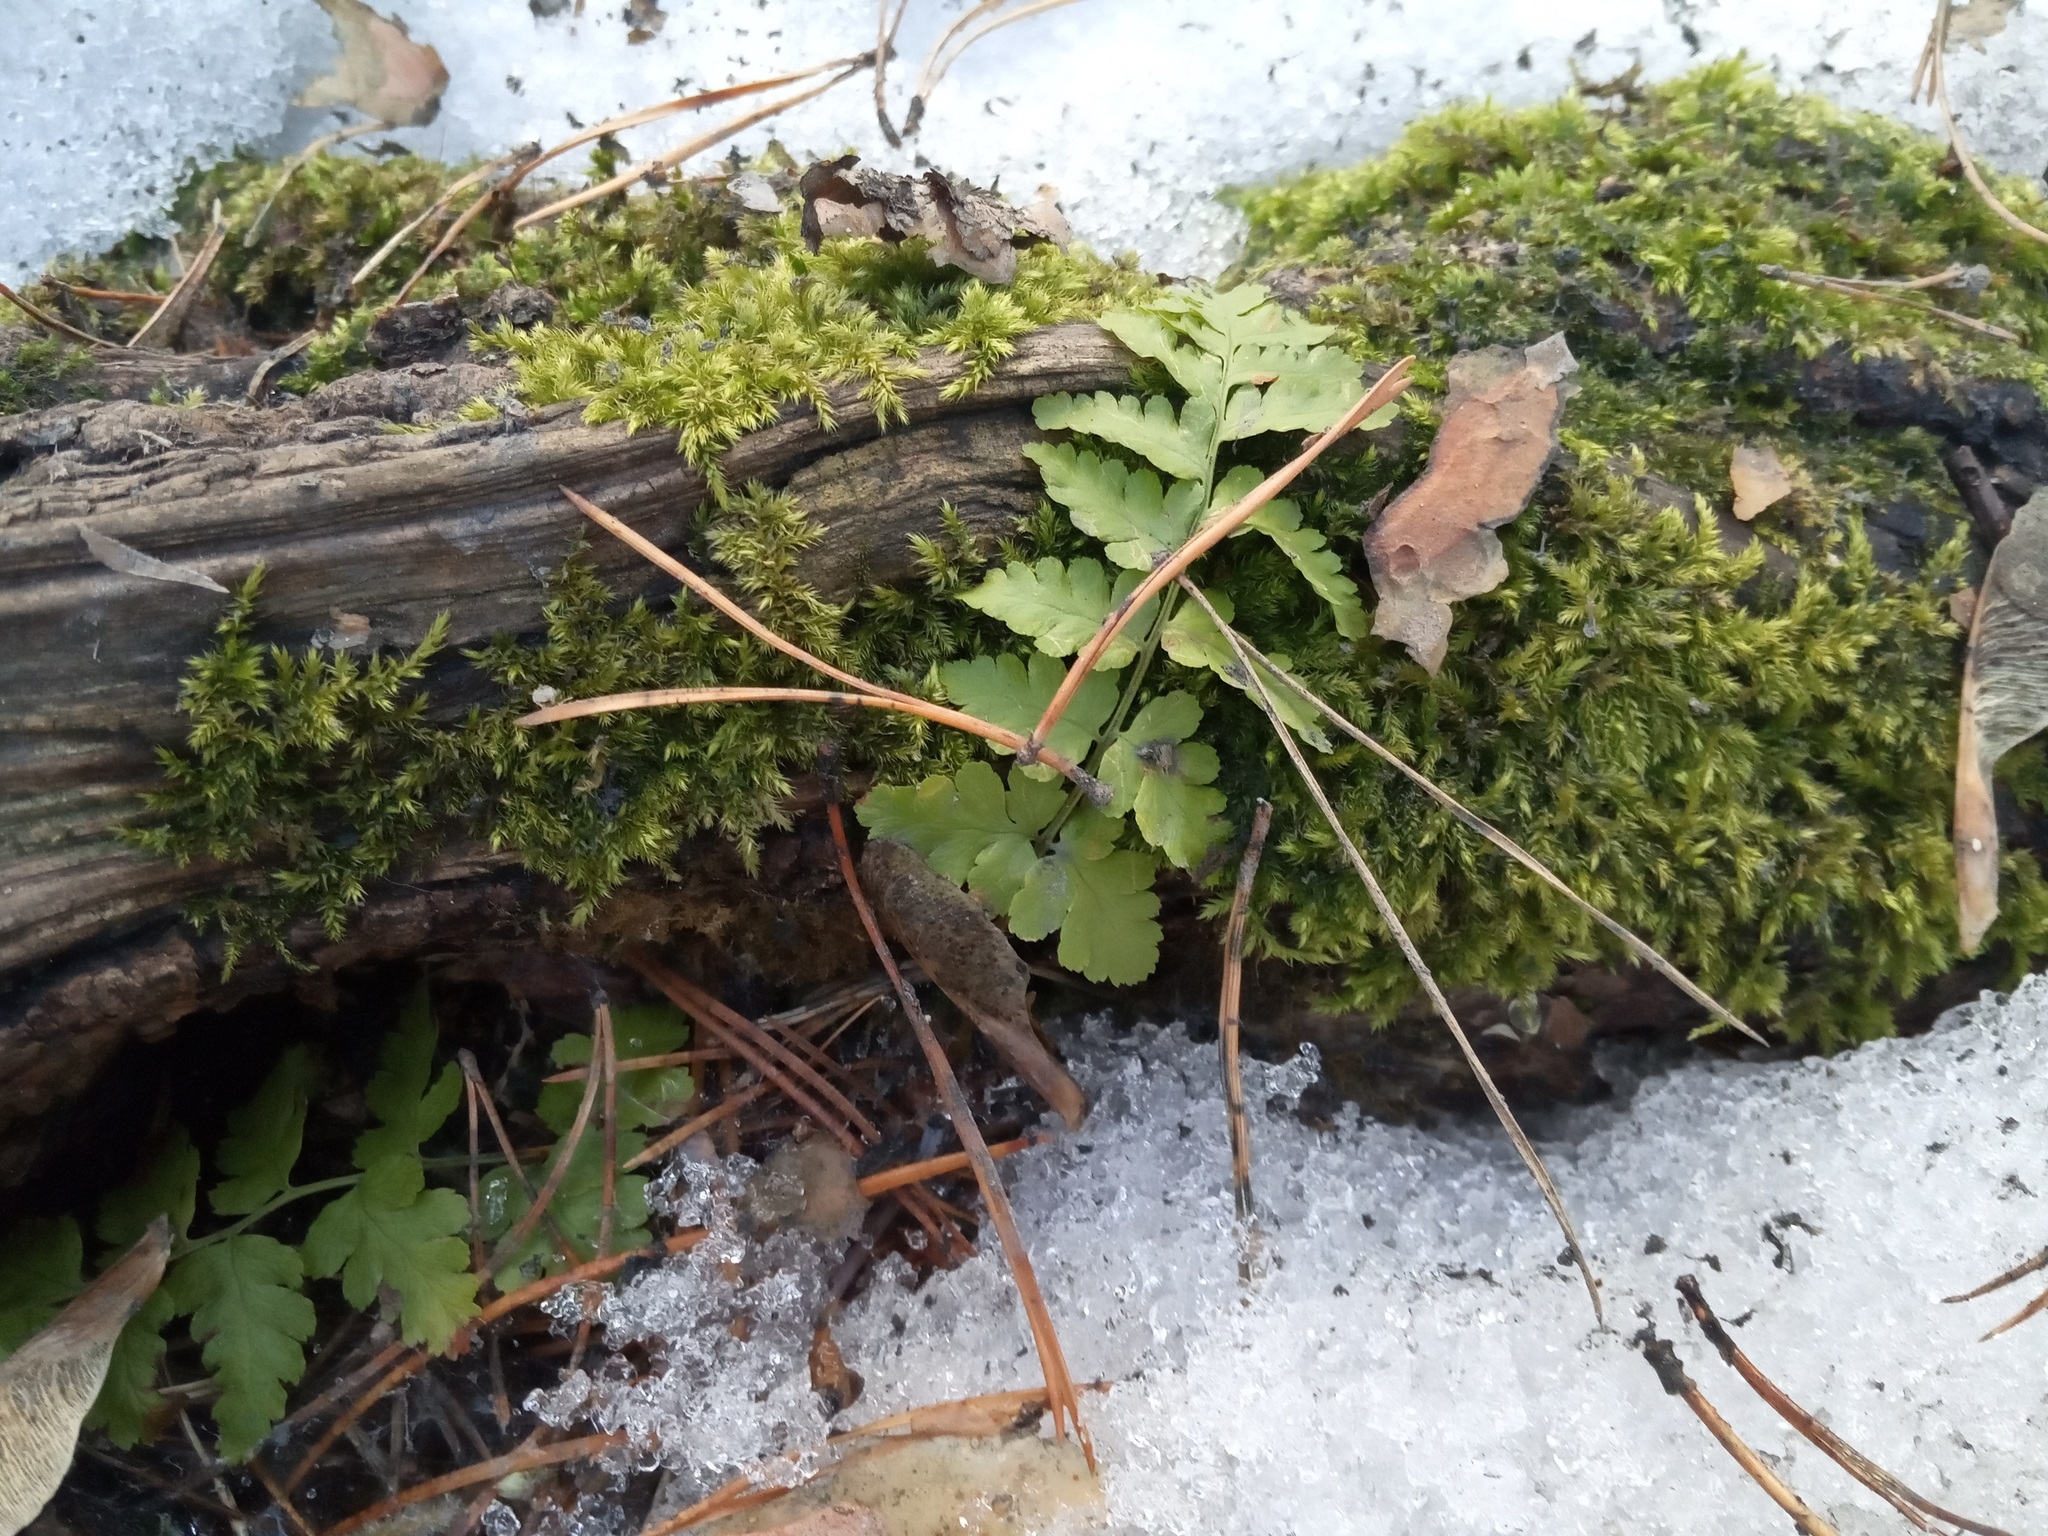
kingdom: Plantae
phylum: Tracheophyta
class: Polypodiopsida
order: Polypodiales
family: Dryopteridaceae
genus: Dryopteris
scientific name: Dryopteris carthusiana
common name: Narrow buckler-fern
